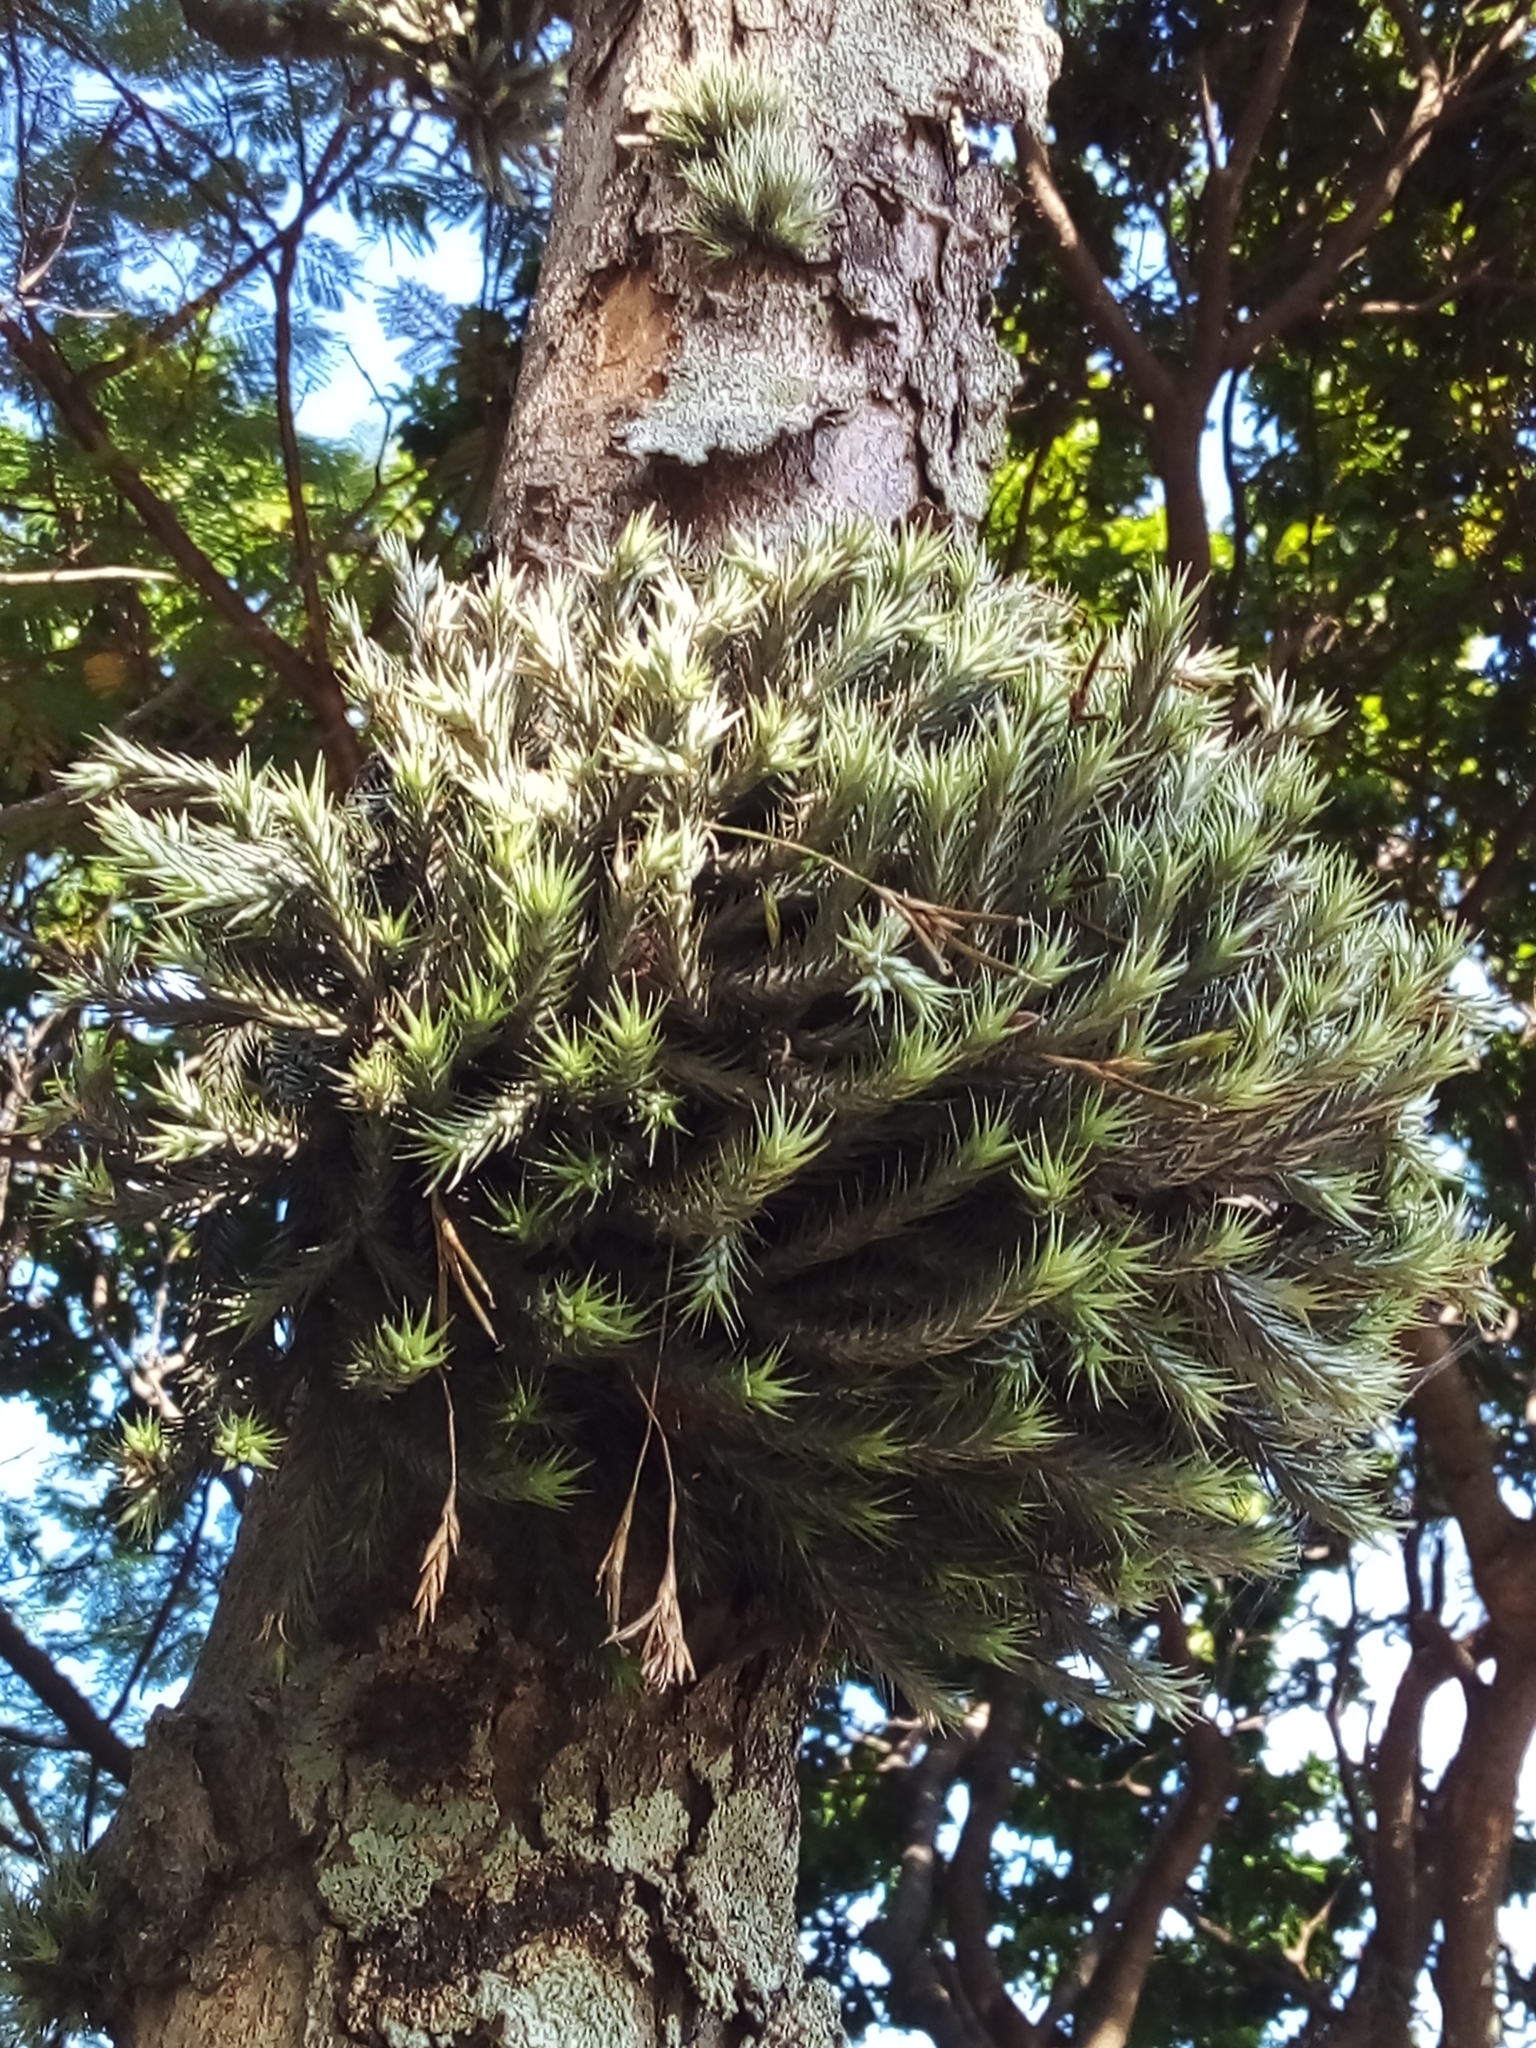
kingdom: Plantae
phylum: Tracheophyta
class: Liliopsida
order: Poales
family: Bromeliaceae
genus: Tillandsia
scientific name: Tillandsia tricholepis
